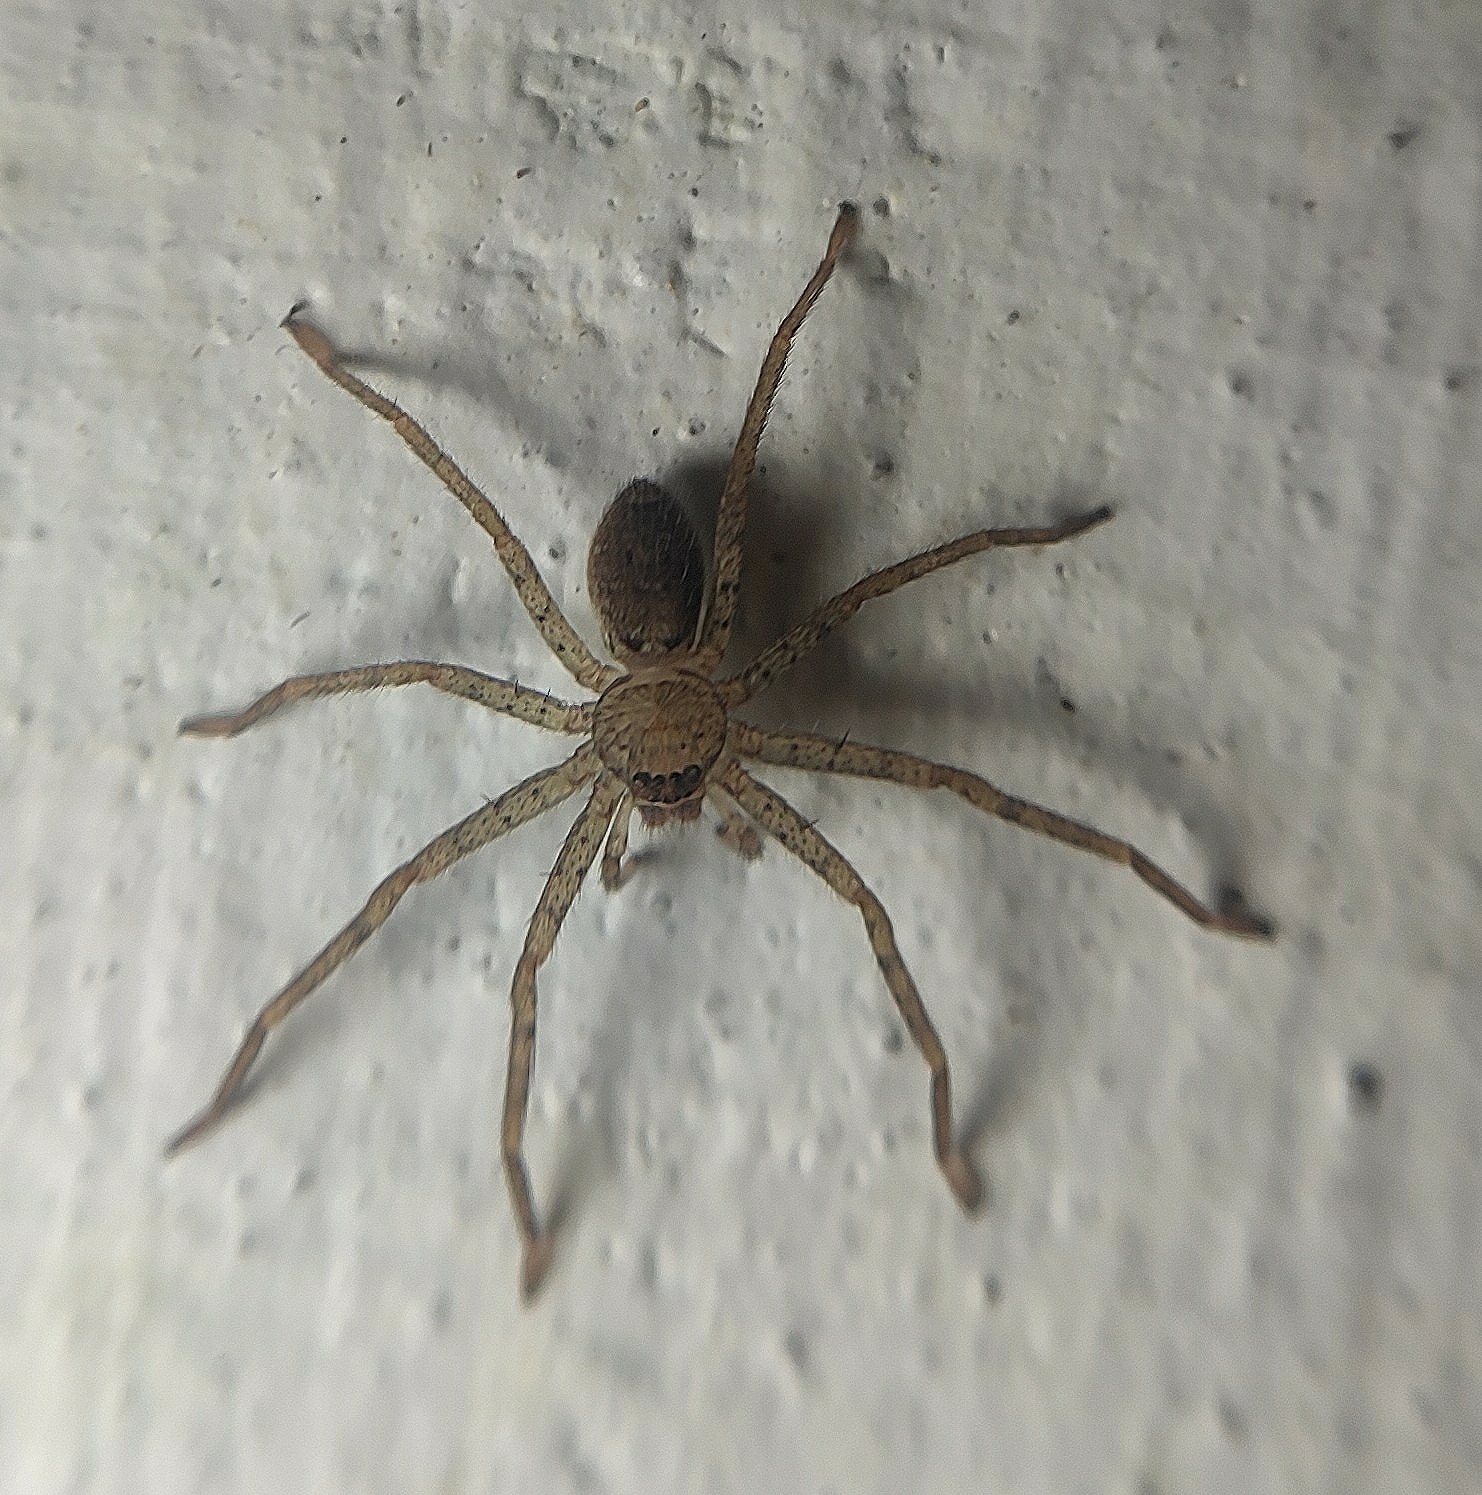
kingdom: Animalia
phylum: Arthropoda
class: Arachnida
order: Araneae
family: Sparassidae
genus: Heteropoda
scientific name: Heteropoda venatoria
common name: Huntsman spider
